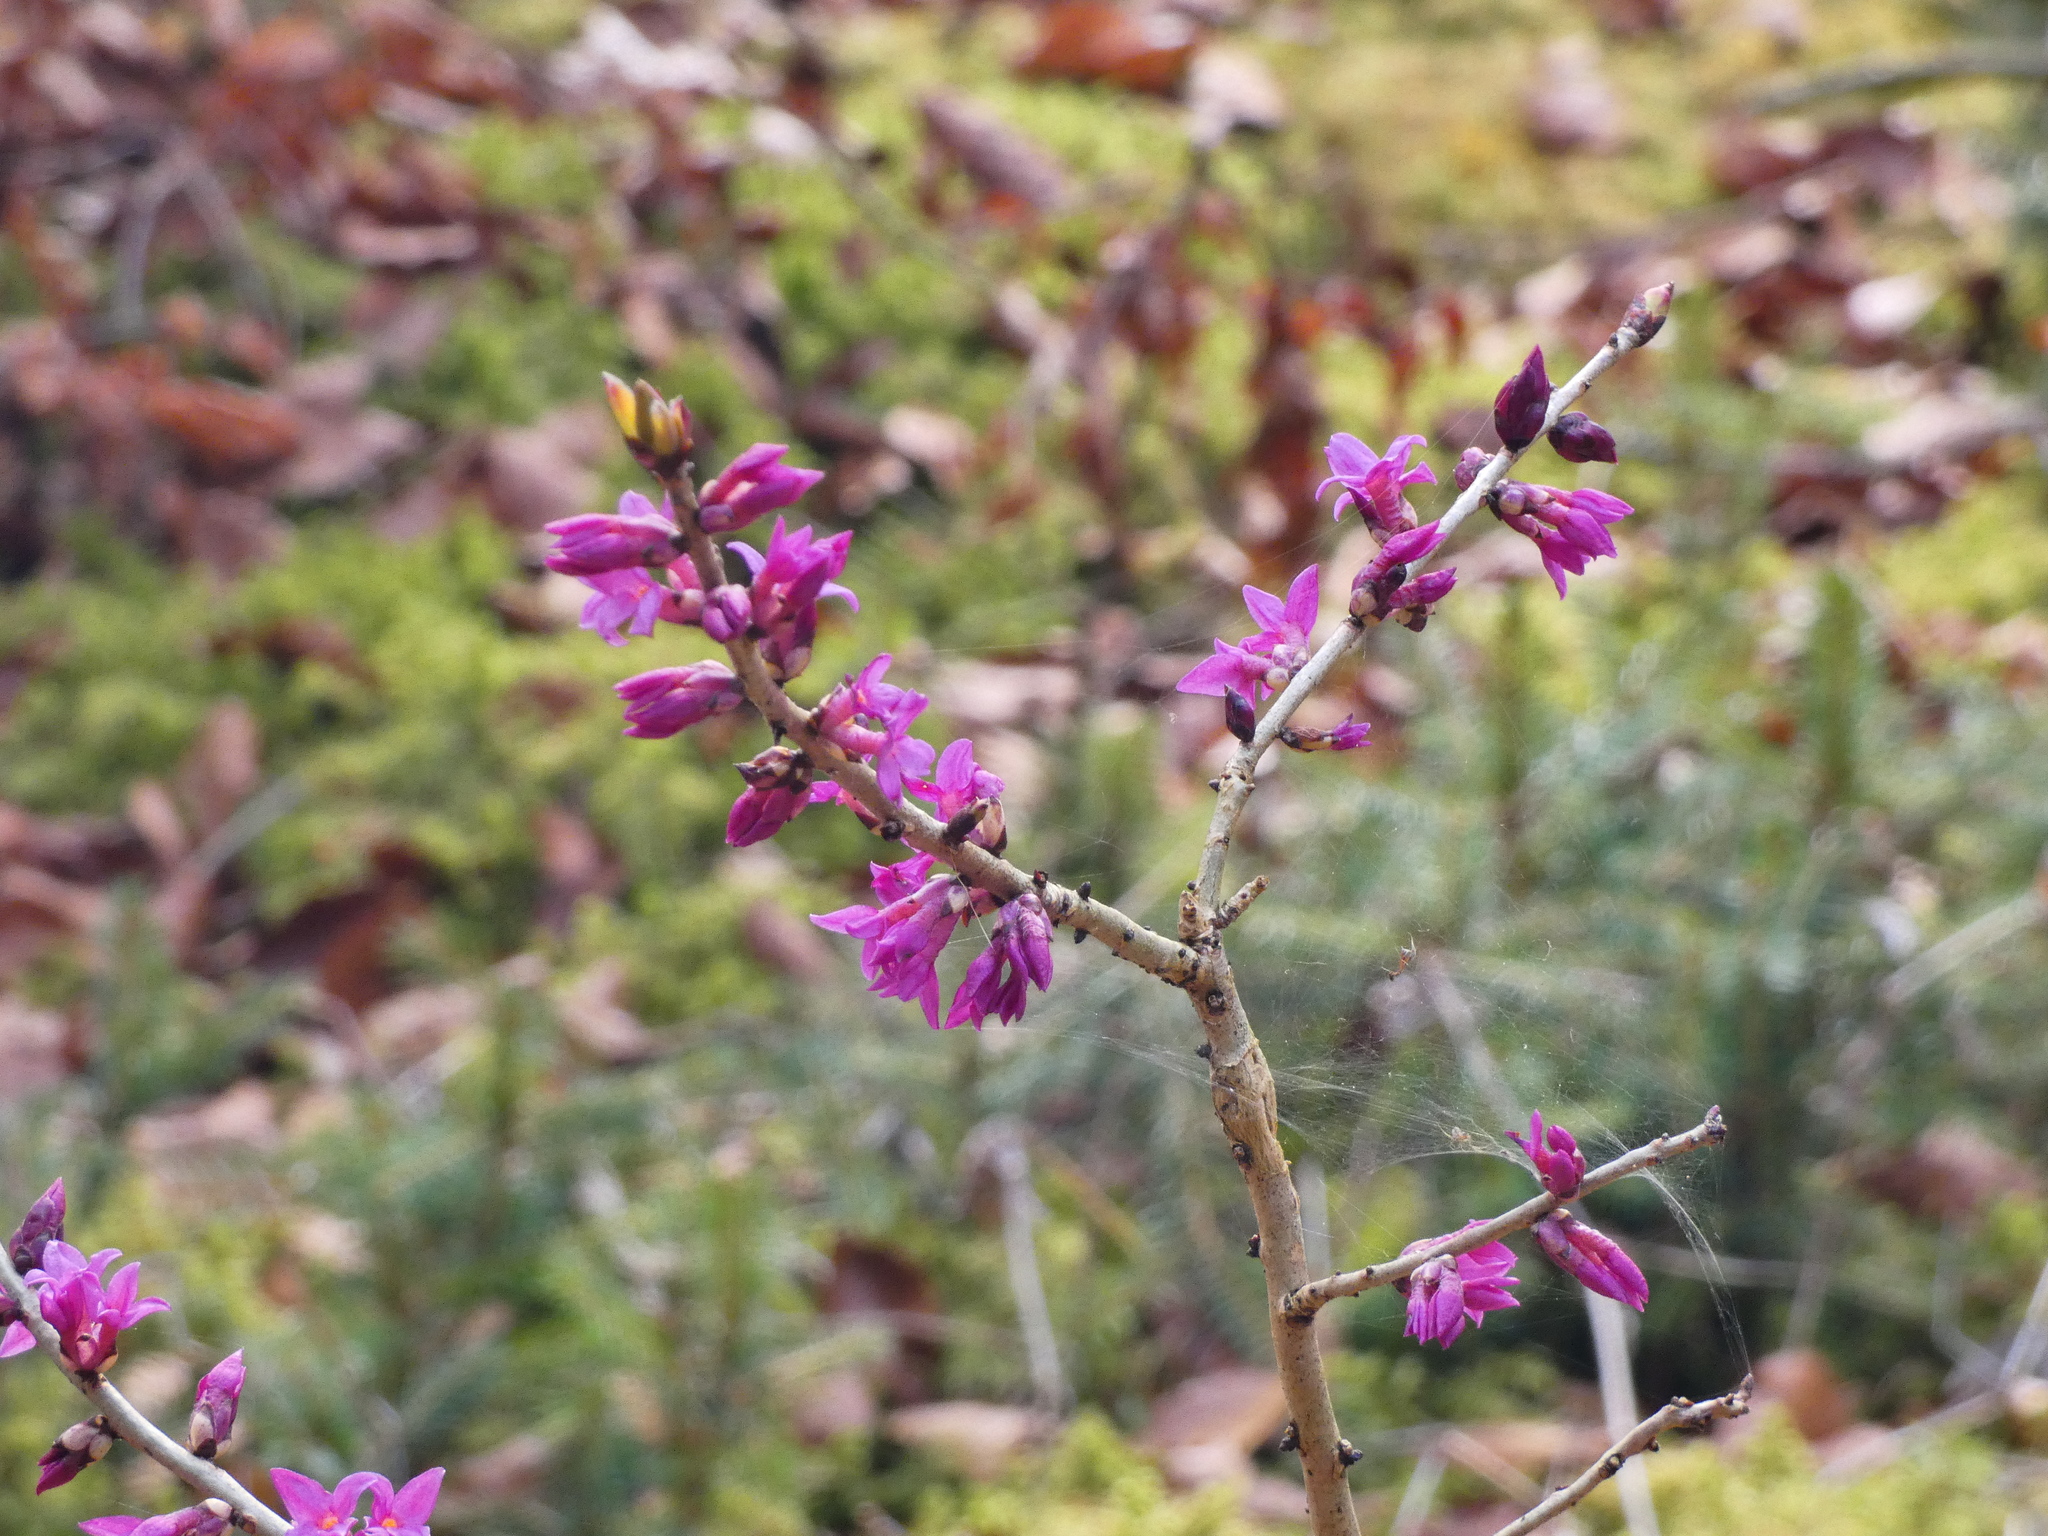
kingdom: Plantae
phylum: Tracheophyta
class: Magnoliopsida
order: Malvales
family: Thymelaeaceae
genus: Daphne
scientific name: Daphne mezereum
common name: Mezereon
